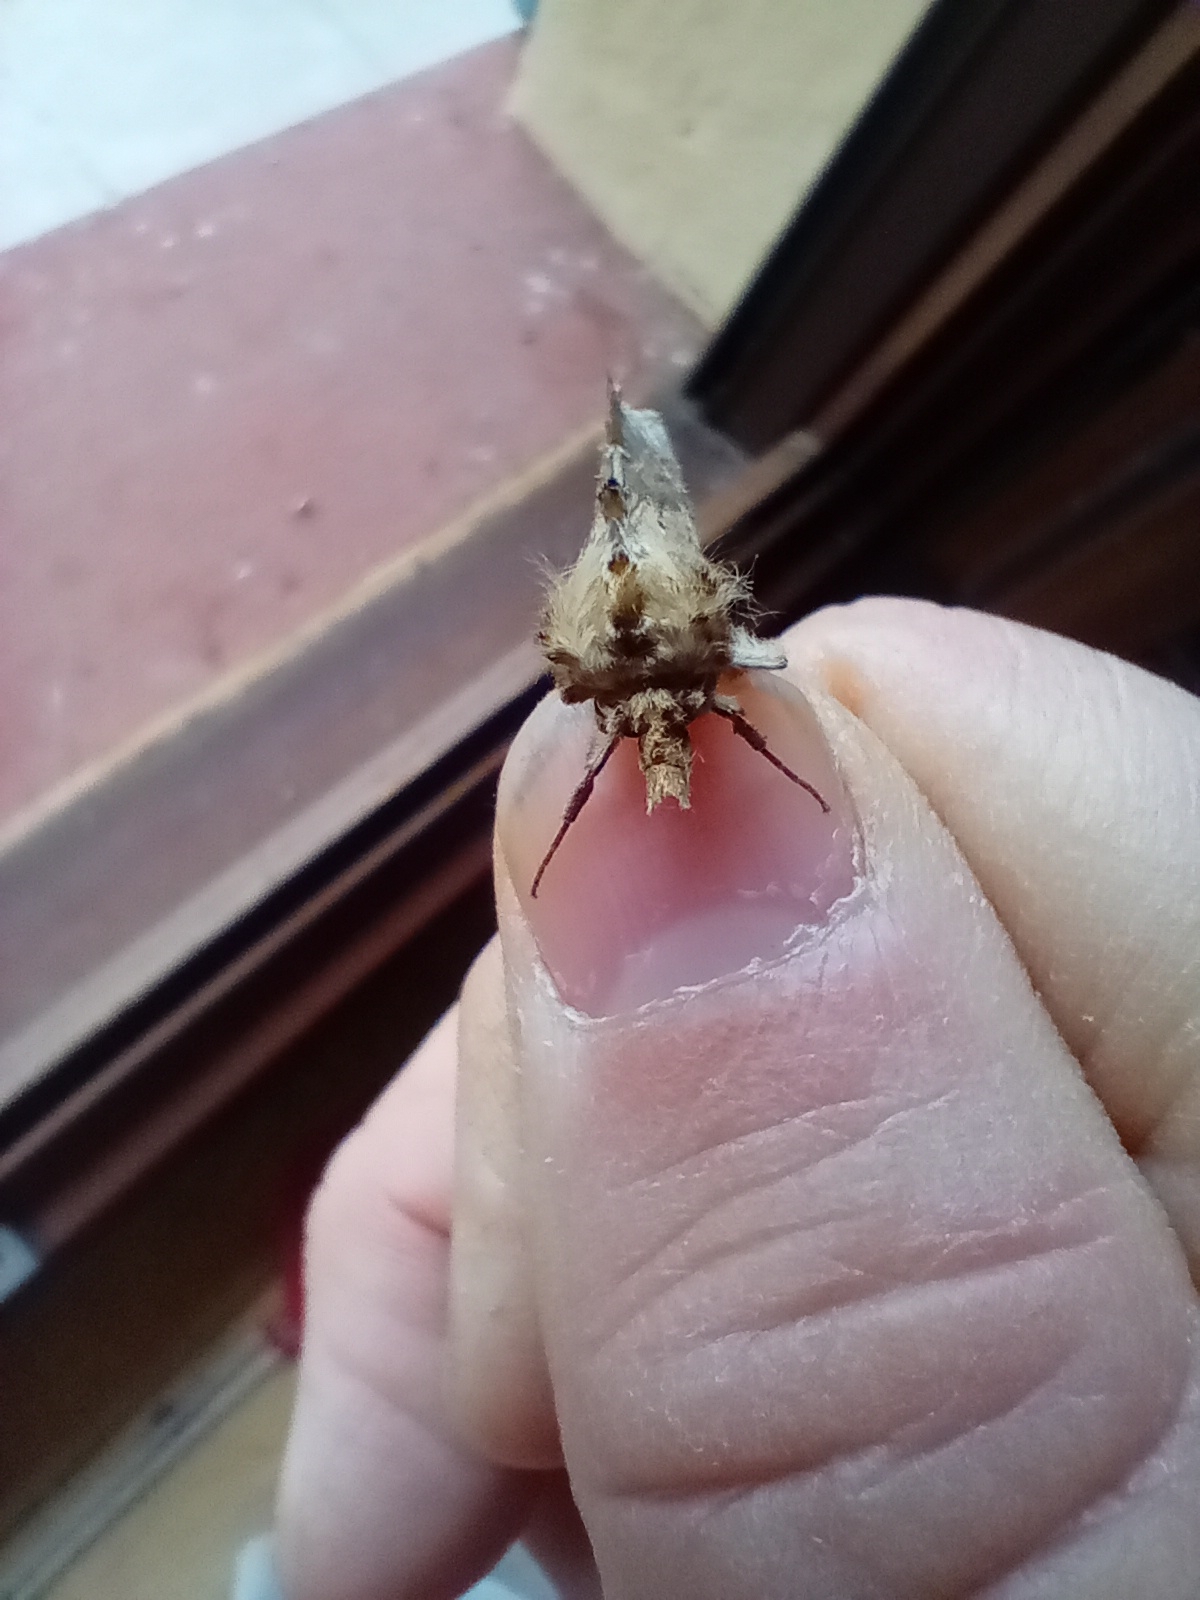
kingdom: Animalia
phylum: Arthropoda
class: Insecta
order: Lepidoptera
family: Notodontidae
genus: Pterostoma
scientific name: Pterostoma palpina
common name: Pale prominent
